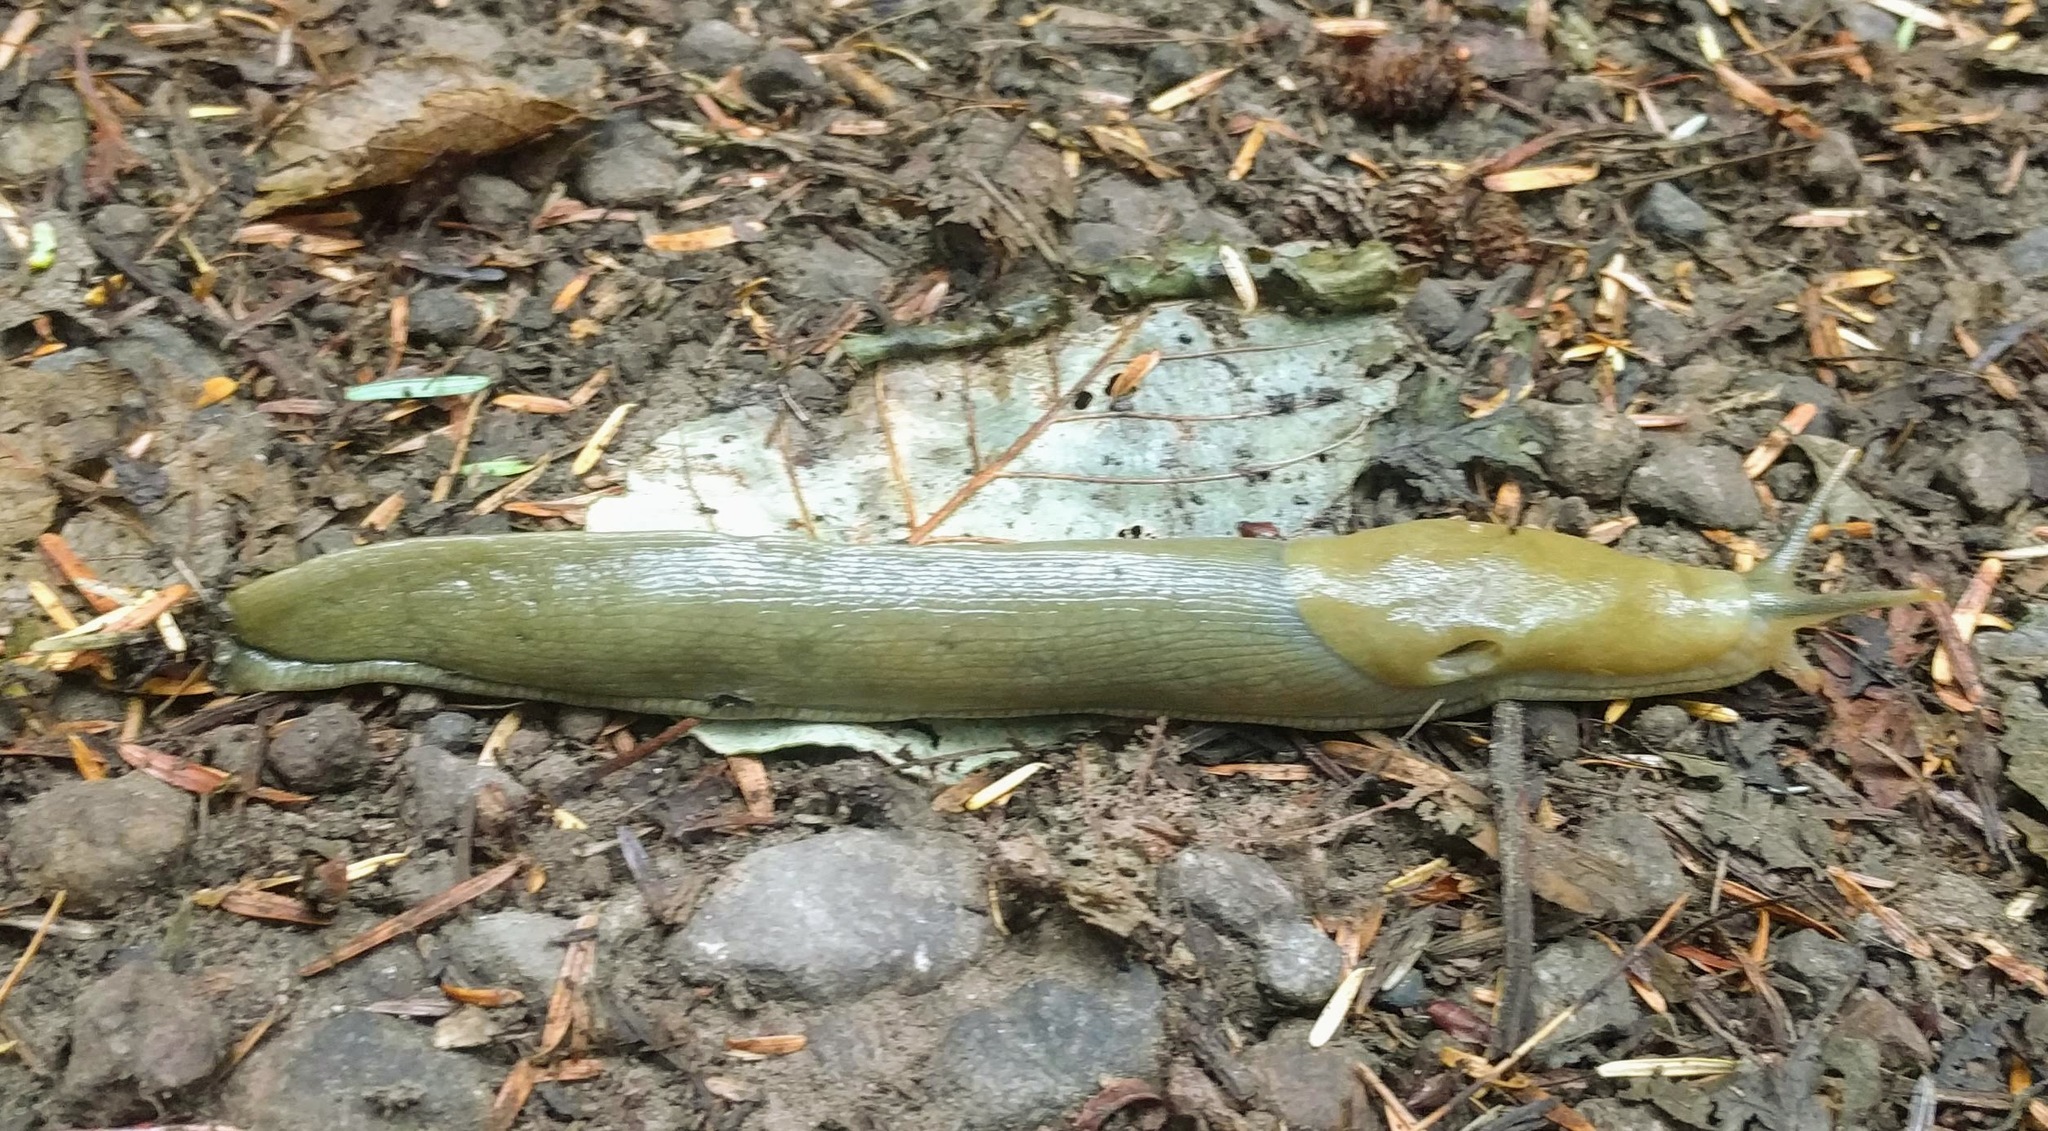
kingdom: Animalia
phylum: Mollusca
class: Gastropoda
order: Stylommatophora
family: Ariolimacidae
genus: Ariolimax
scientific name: Ariolimax columbianus
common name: Pacific banana slug
